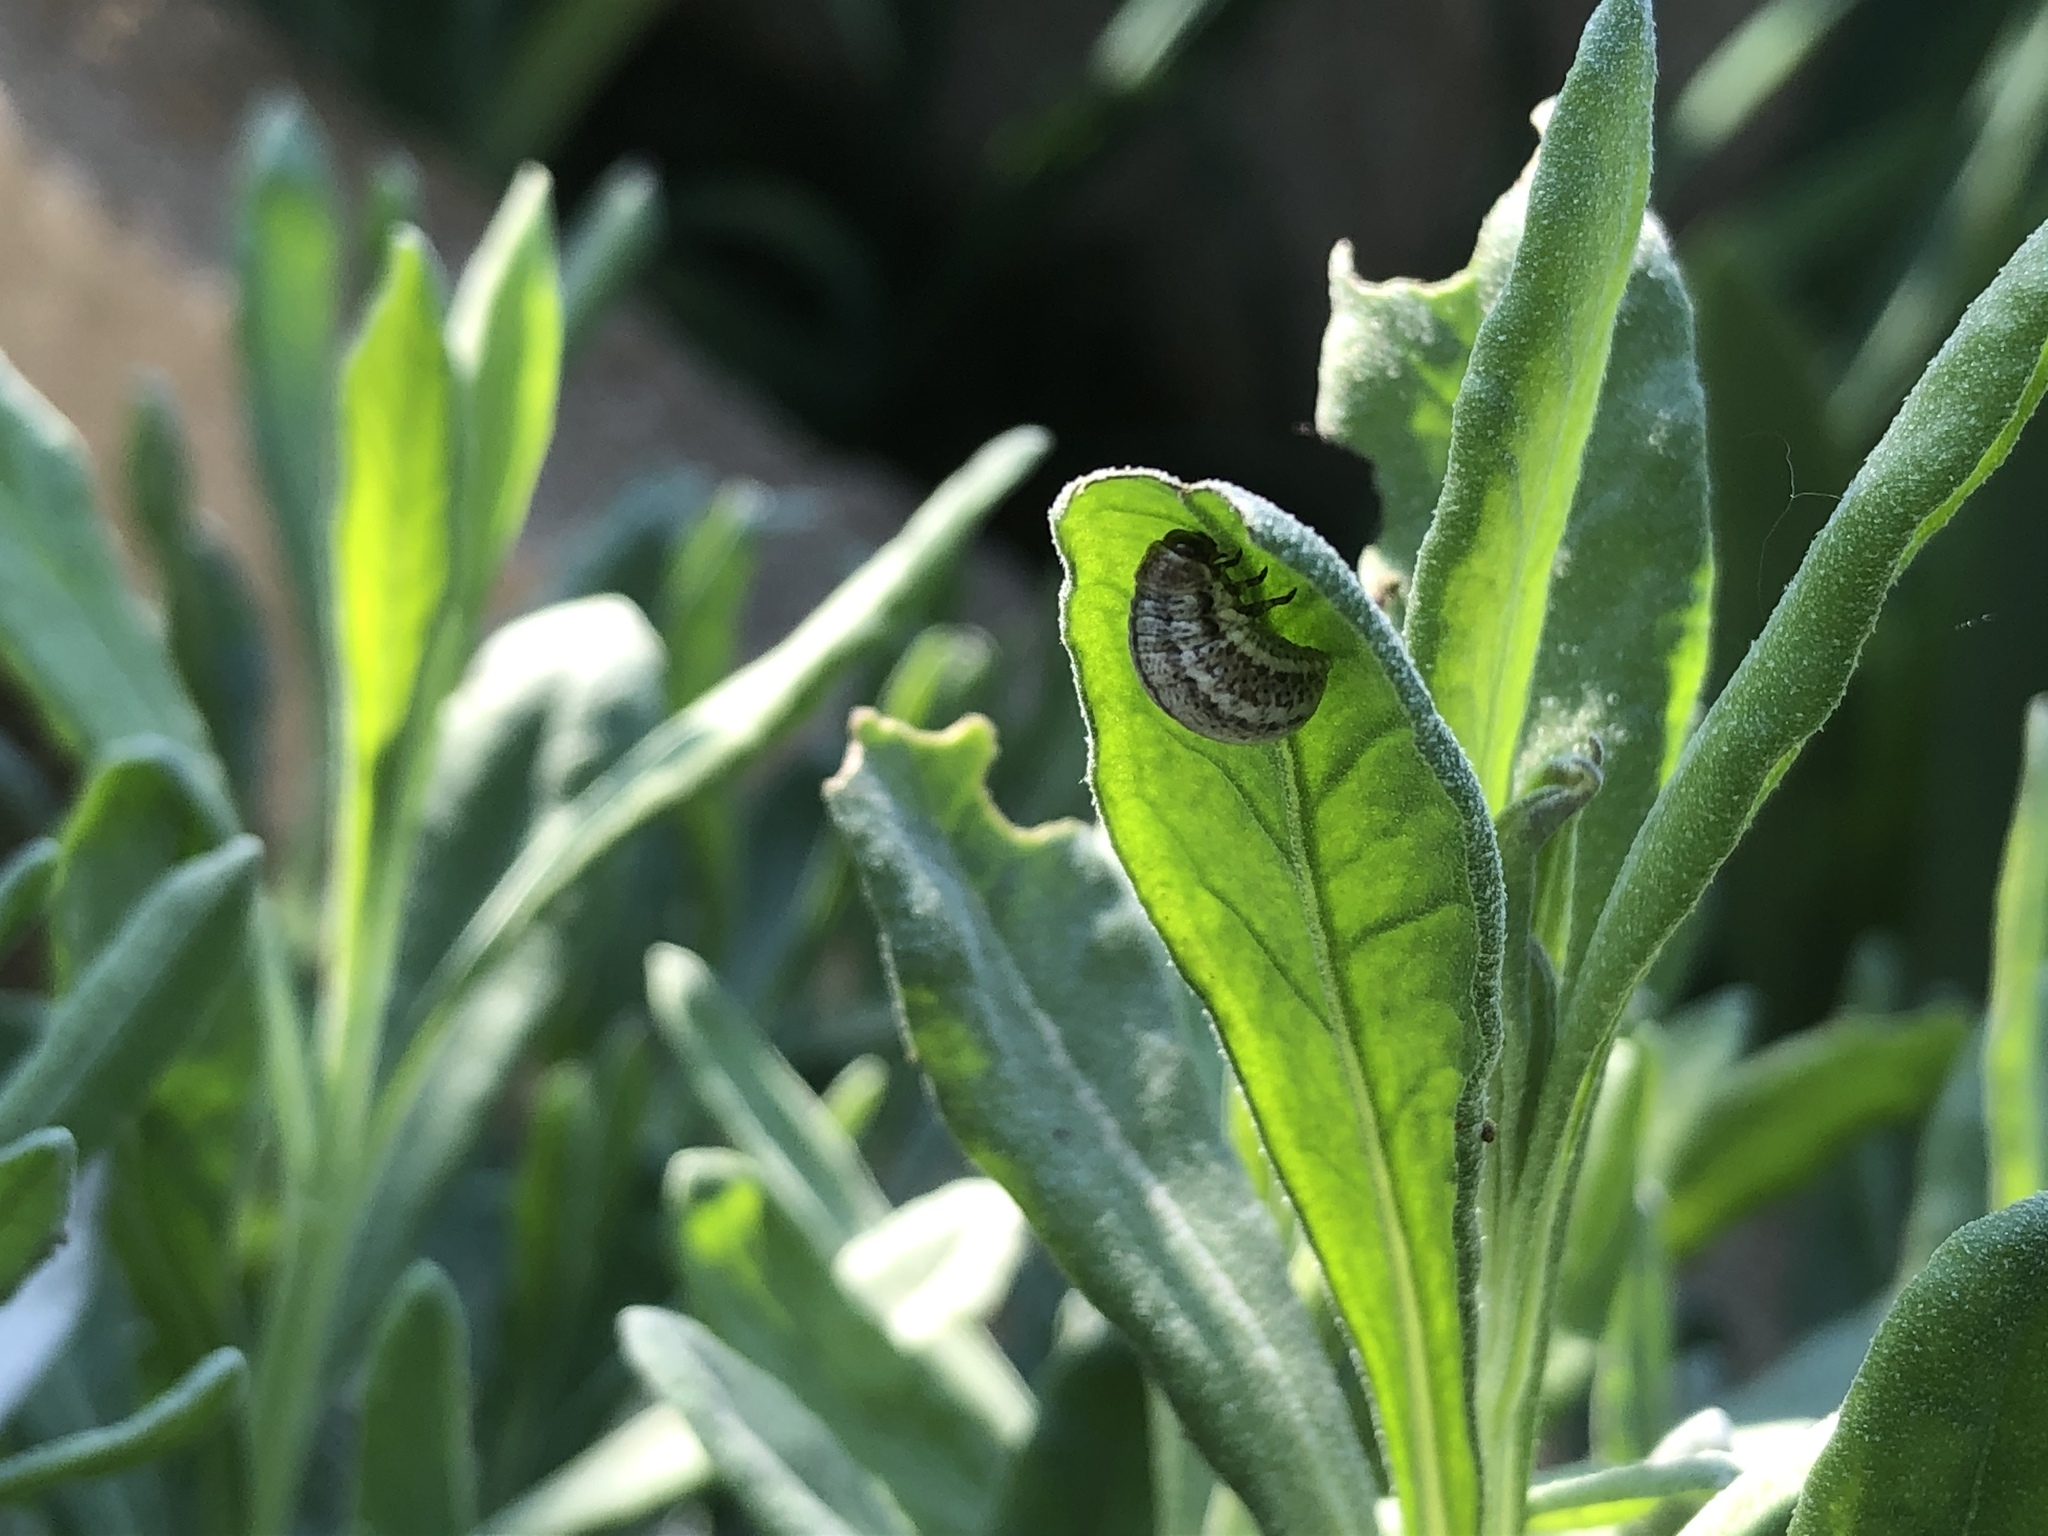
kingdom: Animalia
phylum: Arthropoda
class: Insecta
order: Coleoptera
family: Chrysomelidae
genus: Chrysolina
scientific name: Chrysolina americana
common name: Rosemary beetle
